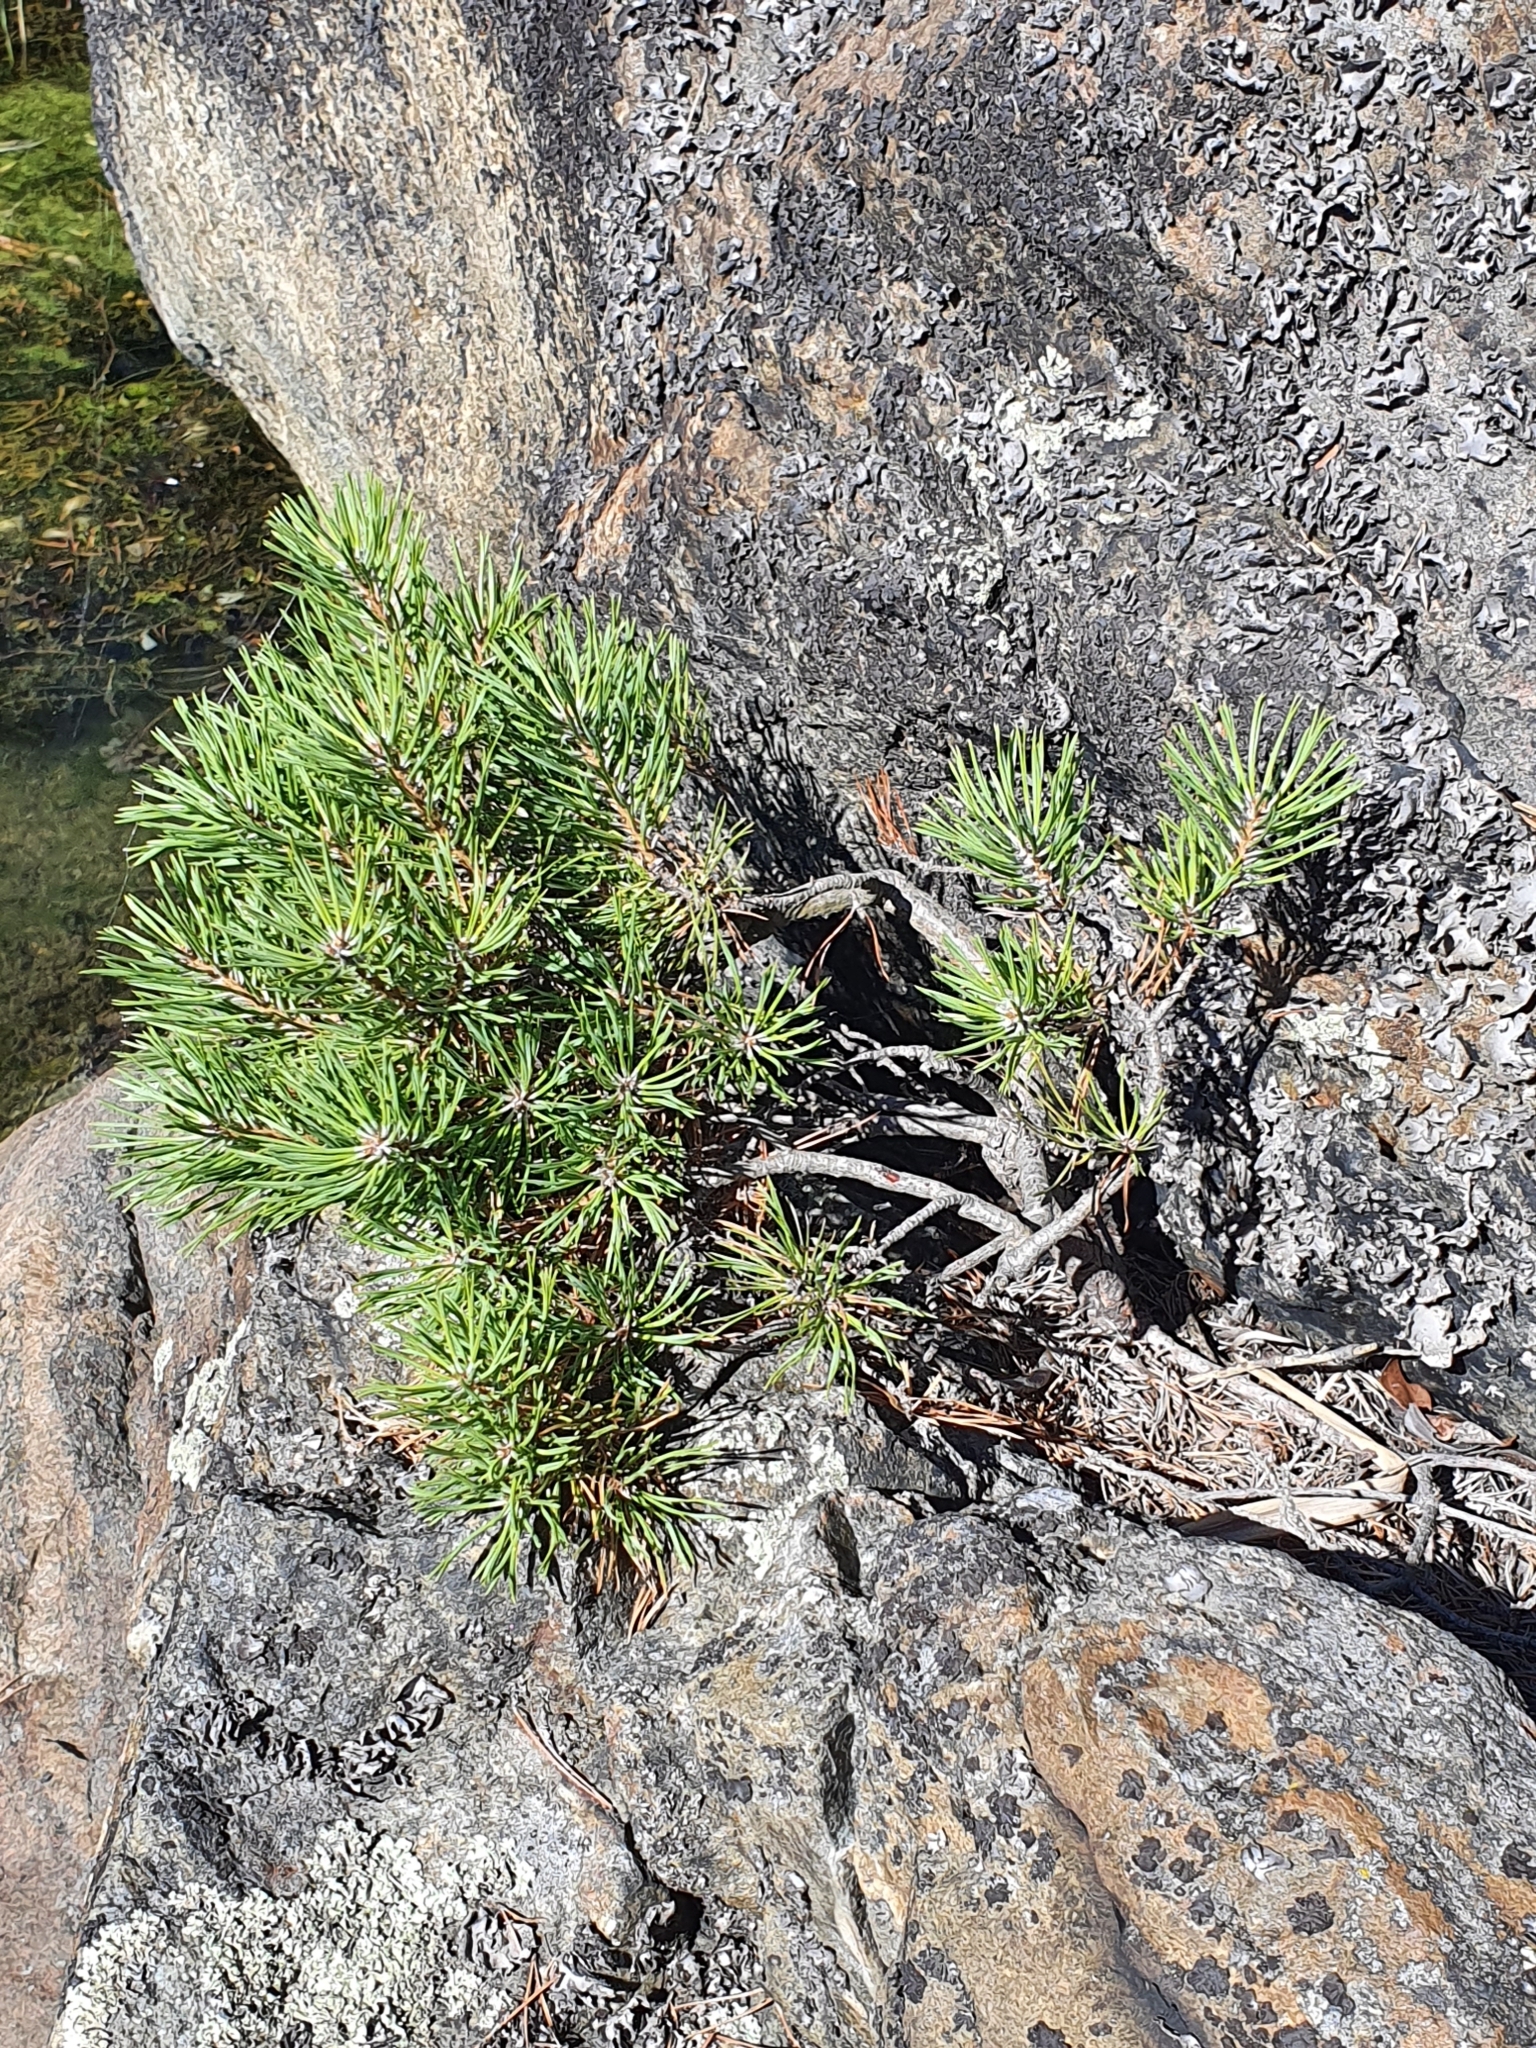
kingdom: Plantae
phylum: Tracheophyta
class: Pinopsida
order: Pinales
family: Pinaceae
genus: Pinus
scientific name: Pinus sylvestris
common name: Scots pine
